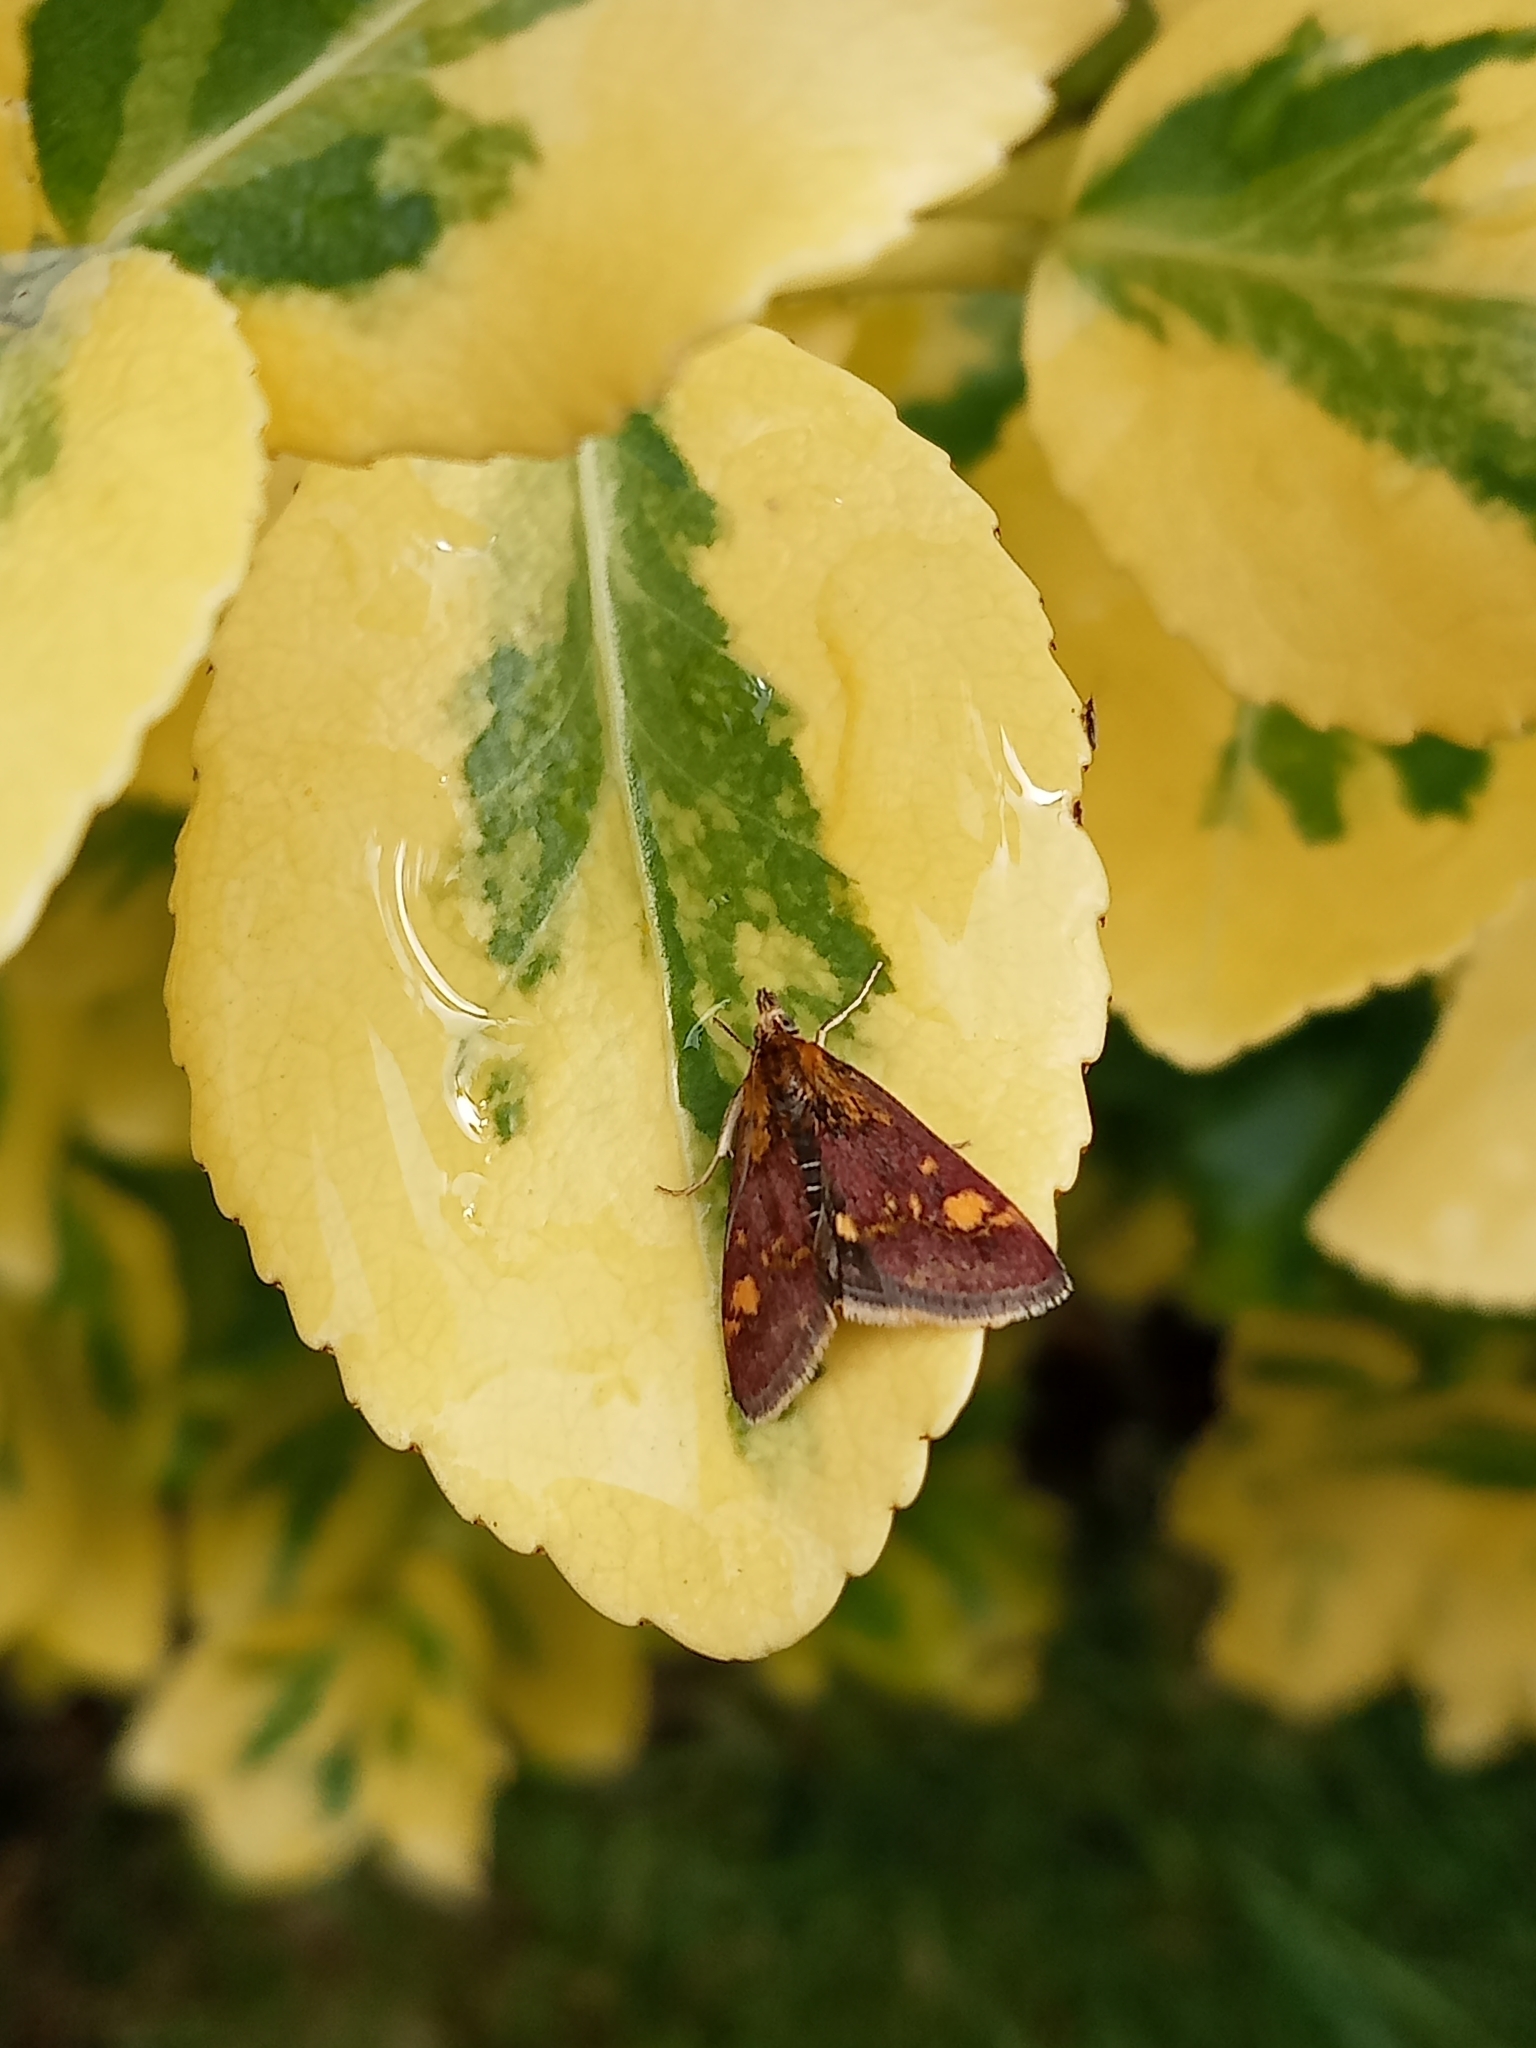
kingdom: Animalia
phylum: Arthropoda
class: Insecta
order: Lepidoptera
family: Crambidae
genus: Pyrausta
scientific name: Pyrausta aurata
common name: Small purple & gold
